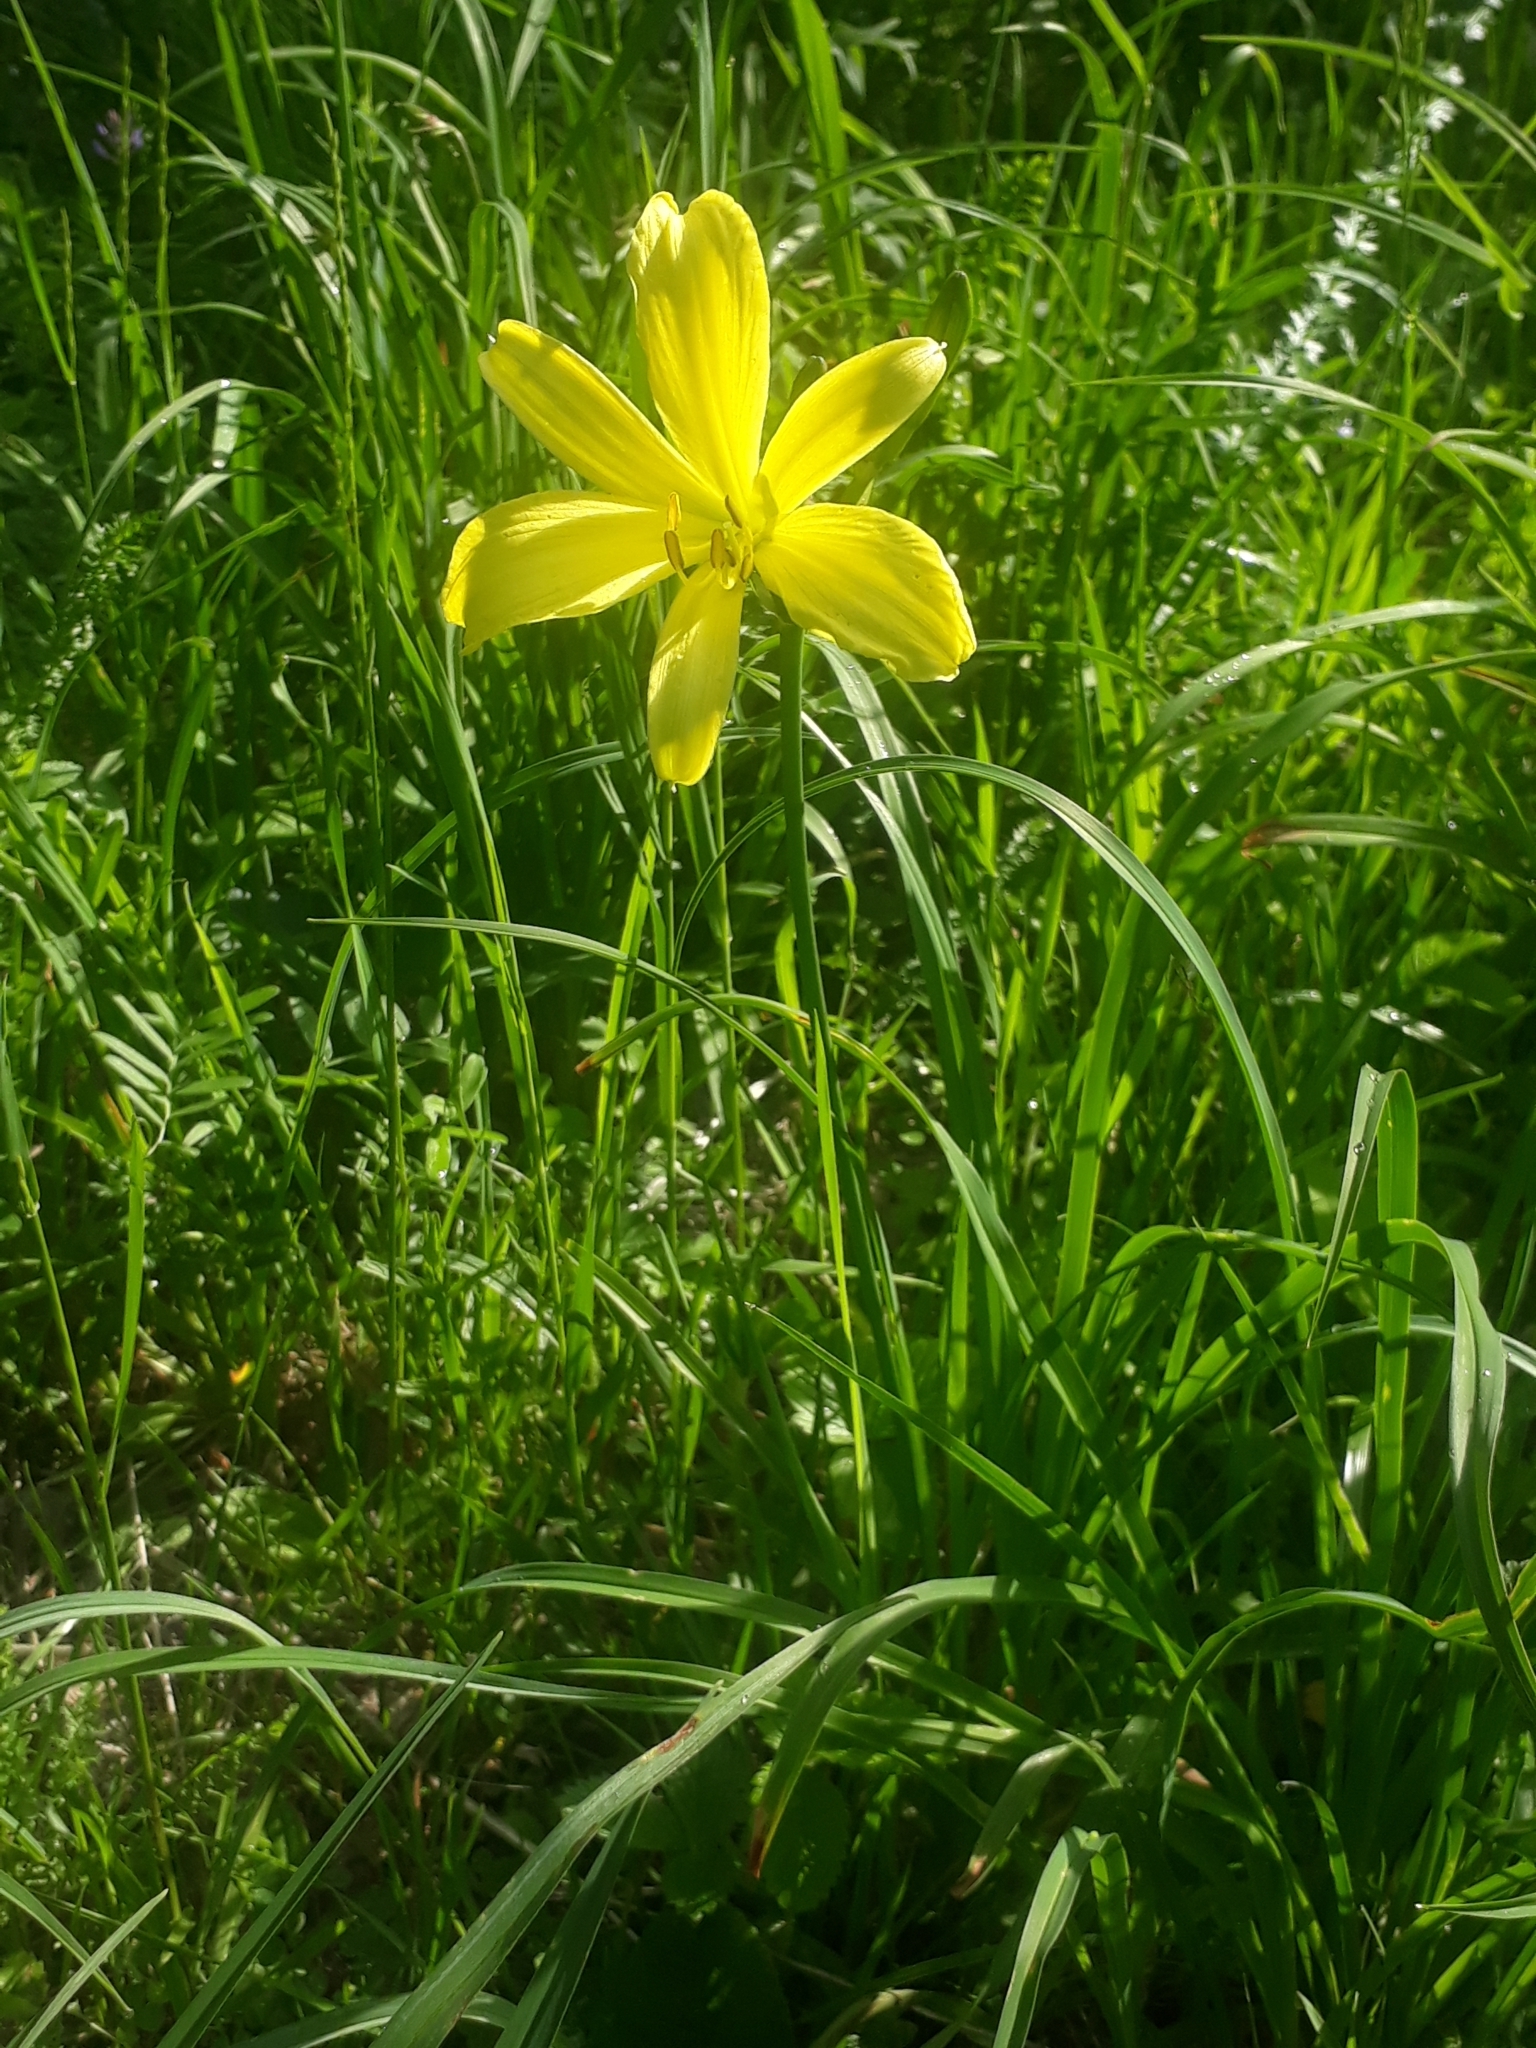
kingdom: Plantae
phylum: Tracheophyta
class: Liliopsida
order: Asparagales
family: Asphodelaceae
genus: Hemerocallis
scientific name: Hemerocallis minor
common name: Small daylily
